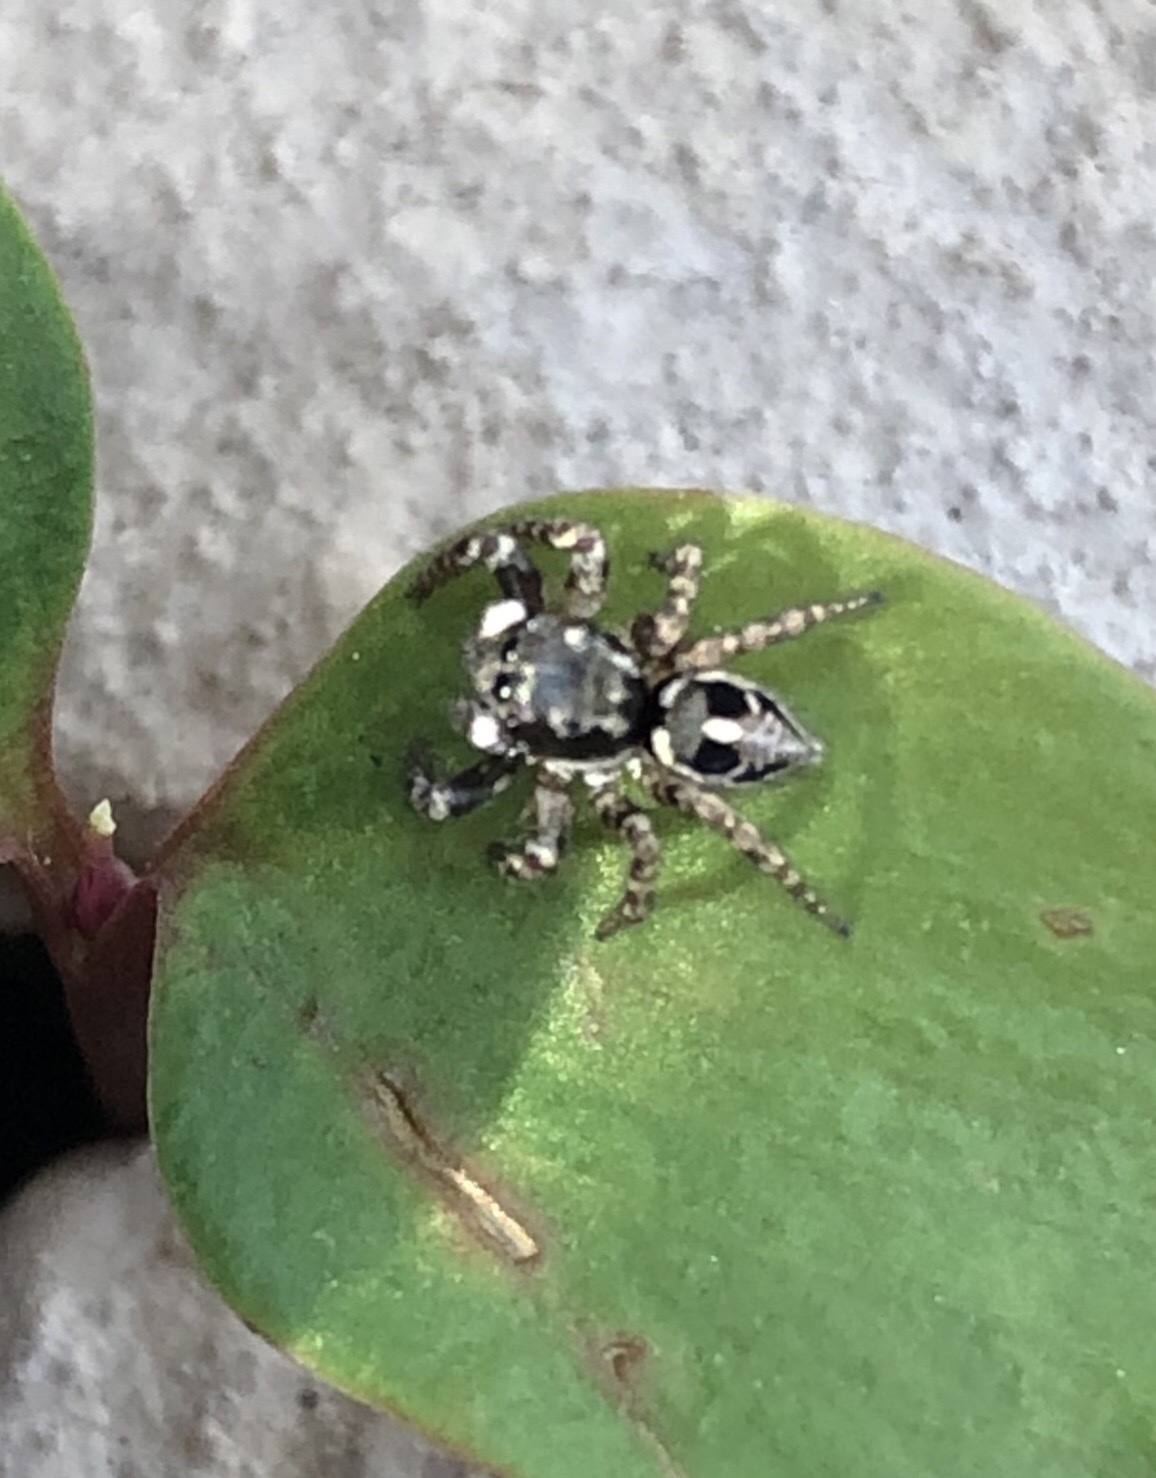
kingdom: Animalia
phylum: Arthropoda
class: Arachnida
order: Araneae
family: Salticidae
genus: Anasaitis
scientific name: Anasaitis canosa
